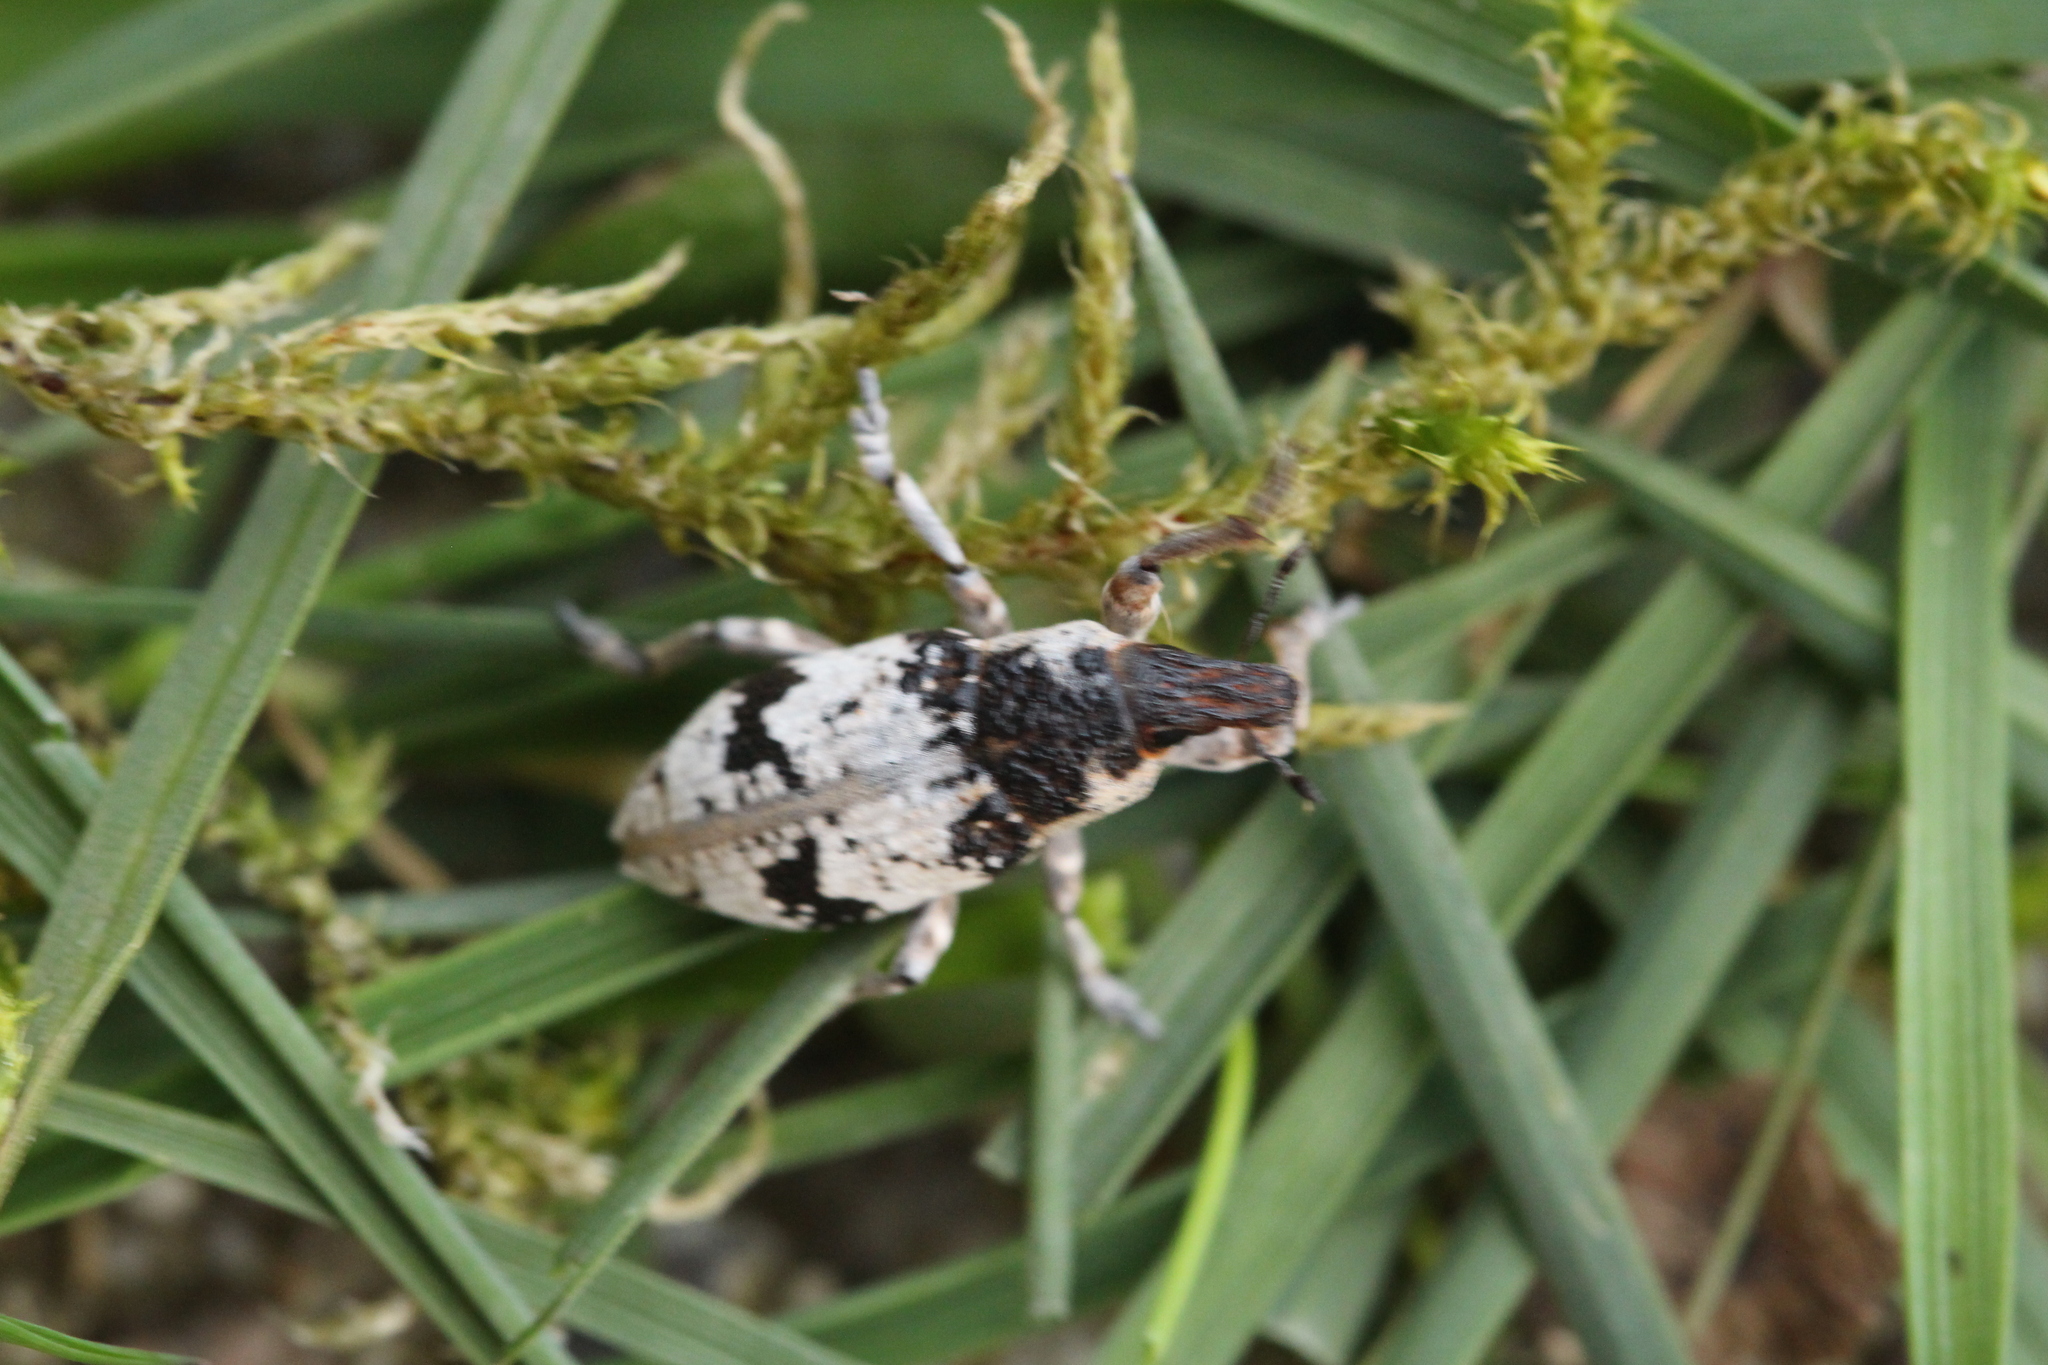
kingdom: Animalia
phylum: Arthropoda
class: Insecta
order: Coleoptera
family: Curculionidae
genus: Bothynoderes
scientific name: Bothynoderes affinis
